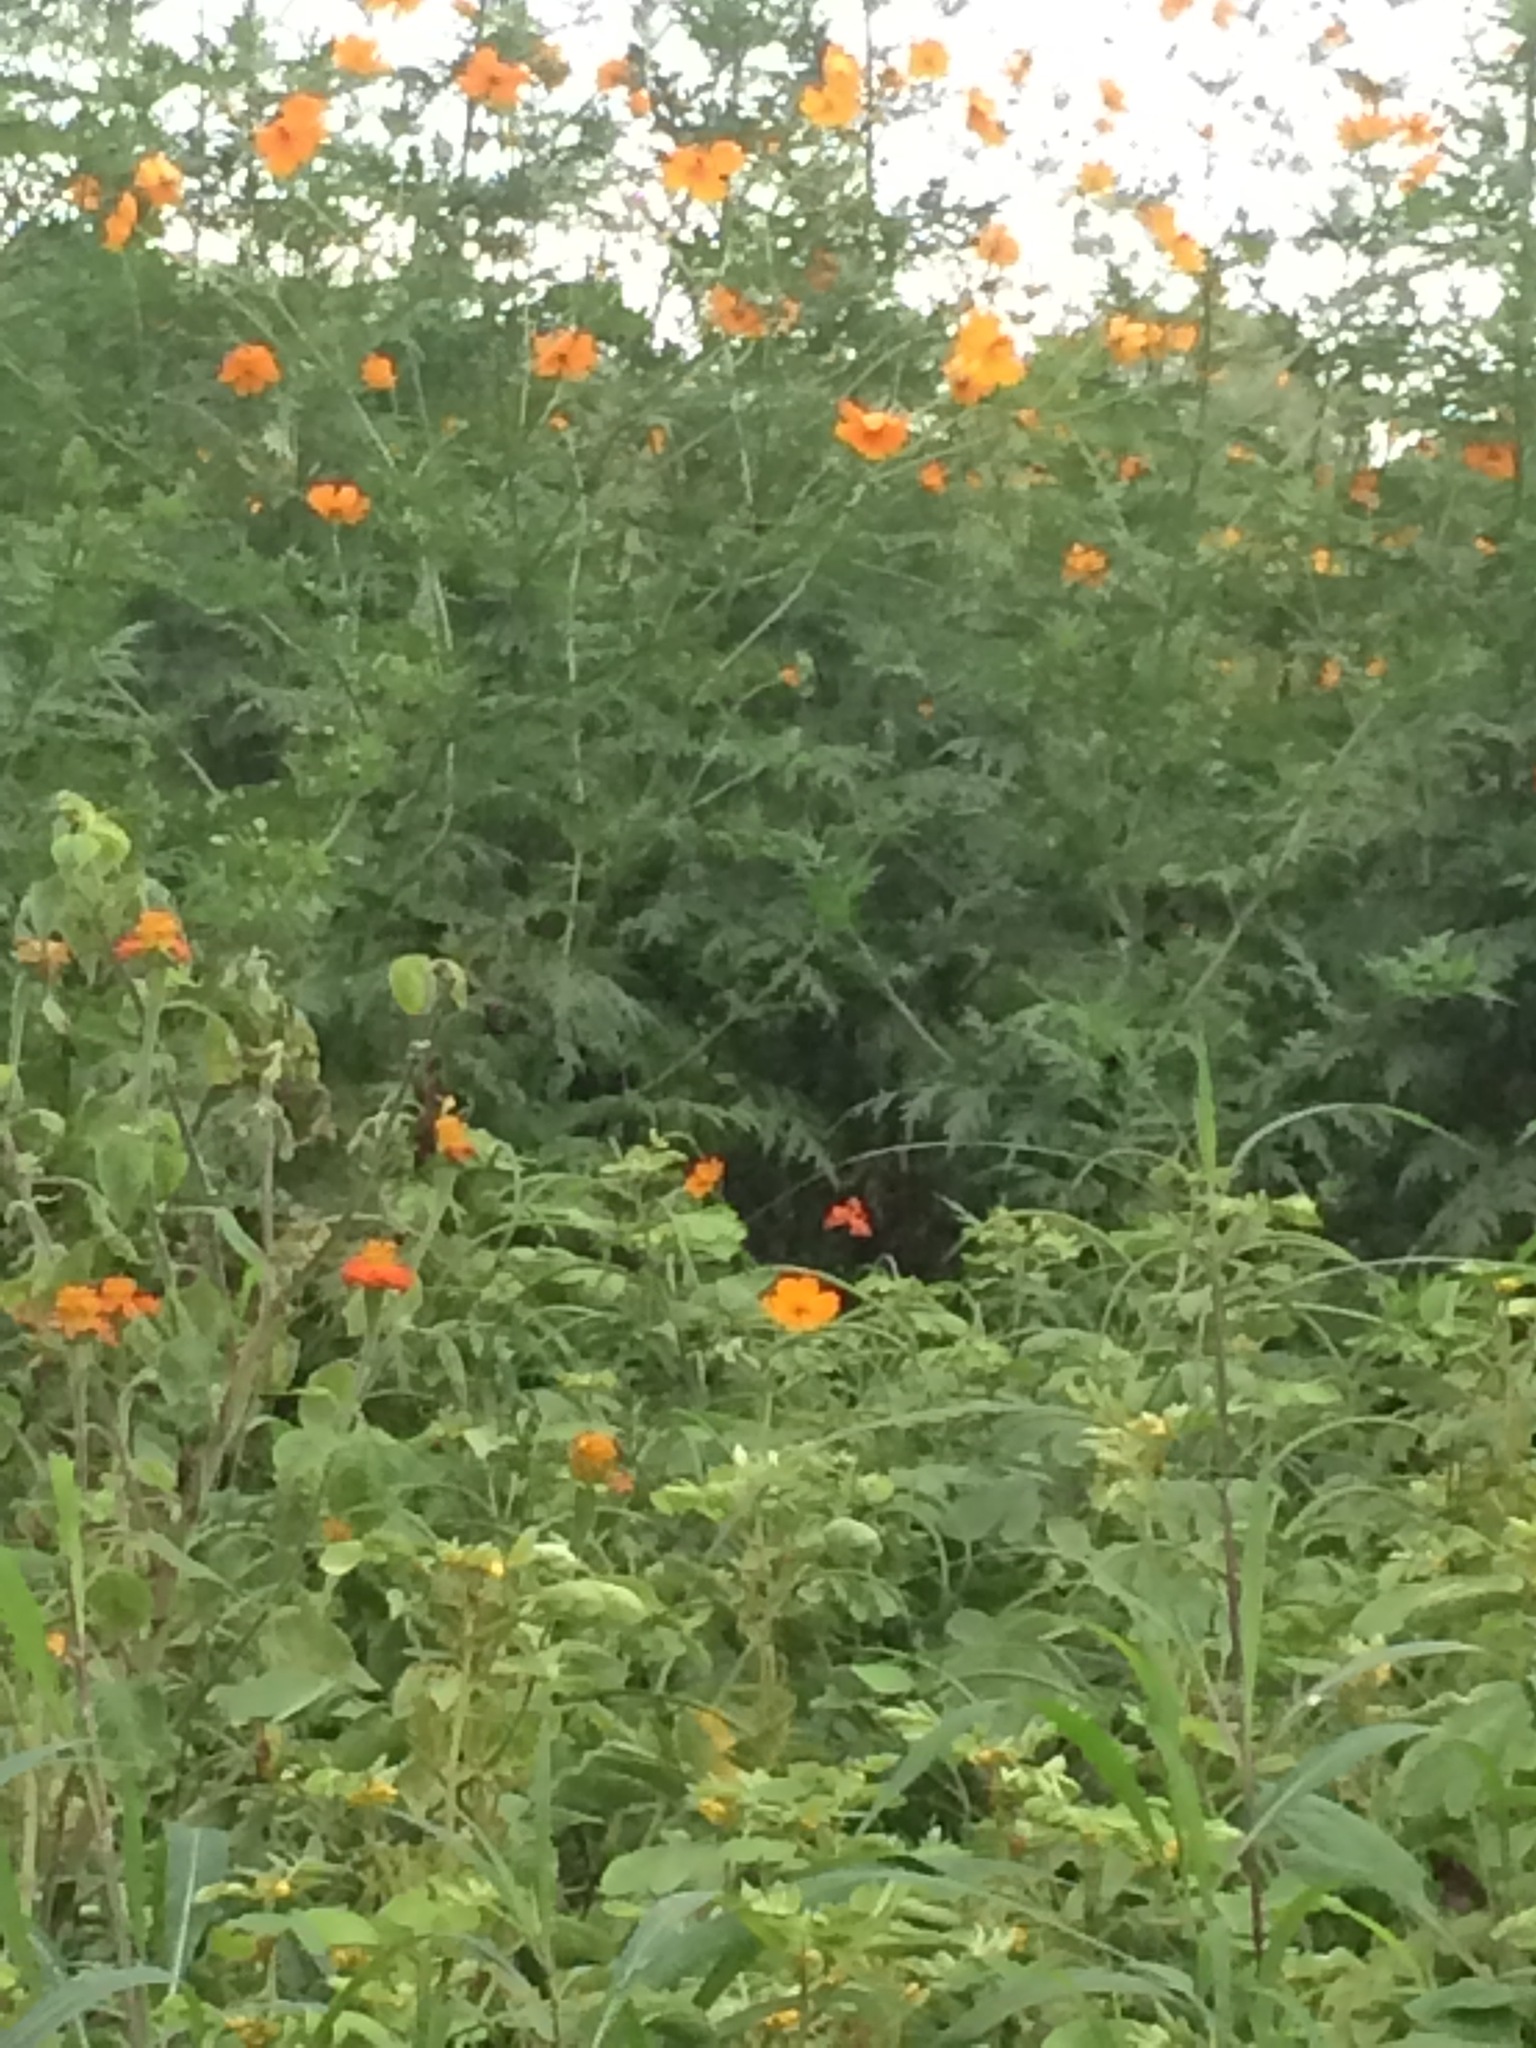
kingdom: Plantae
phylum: Tracheophyta
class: Magnoliopsida
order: Asterales
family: Asteraceae
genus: Cosmos
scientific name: Cosmos sulphureus
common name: Sulphur cosmos
